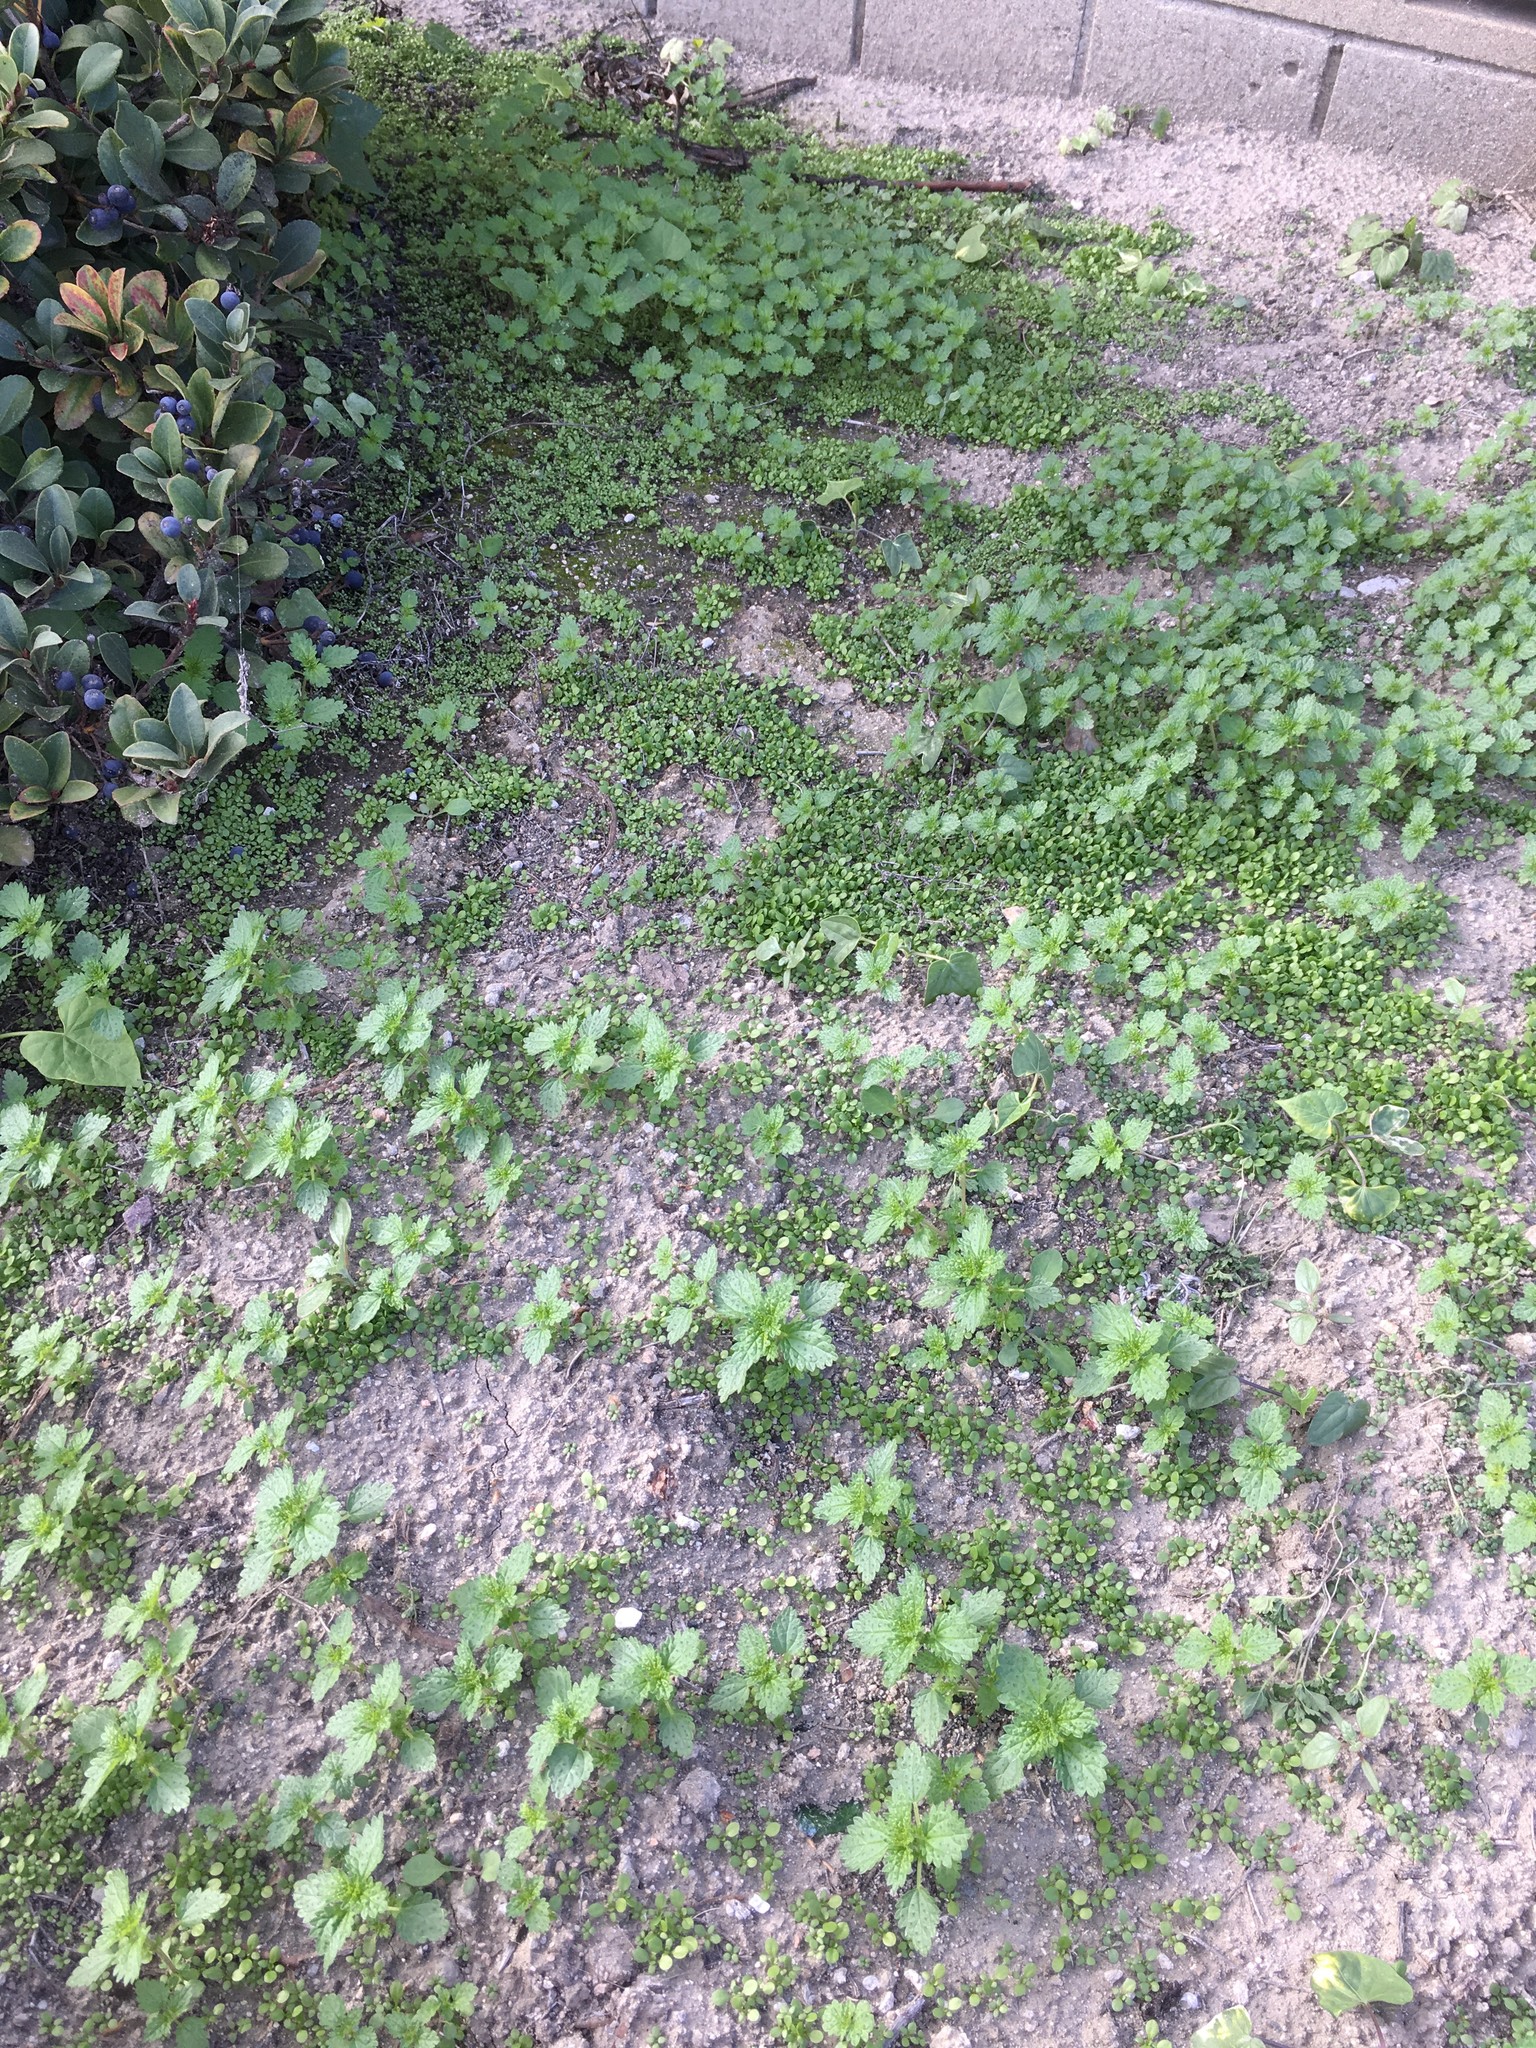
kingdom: Plantae
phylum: Tracheophyta
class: Magnoliopsida
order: Rosales
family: Urticaceae
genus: Urtica
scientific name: Urtica urens
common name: Dwarf nettle
